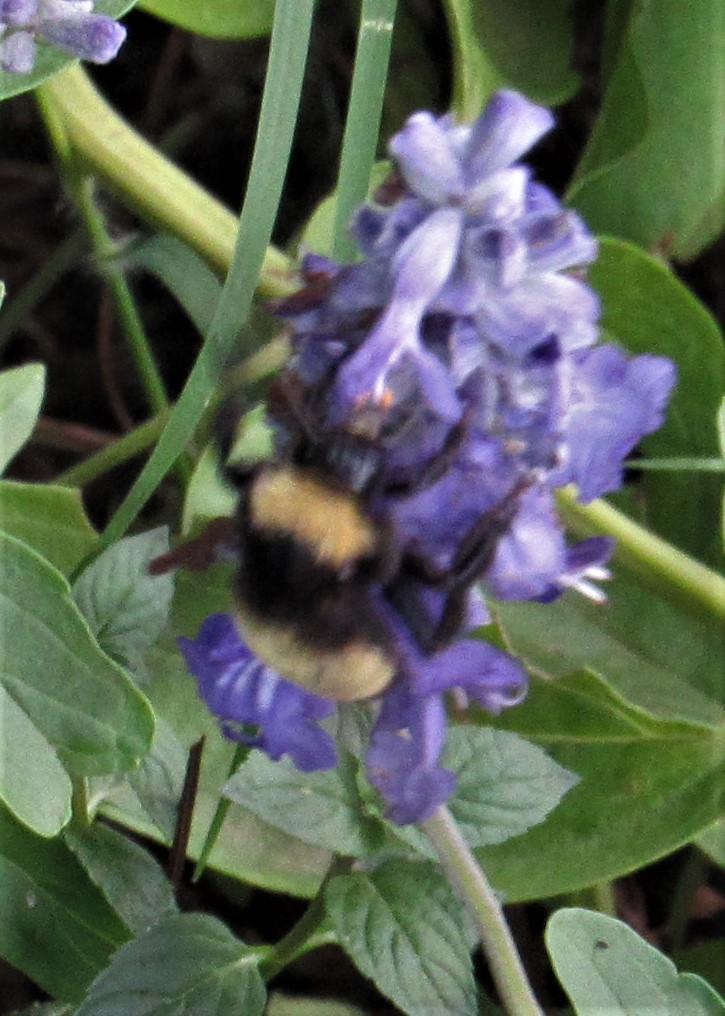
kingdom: Animalia
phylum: Arthropoda
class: Insecta
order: Hymenoptera
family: Apidae
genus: Bombus
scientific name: Bombus pensylvanicus
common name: Bumble bee
